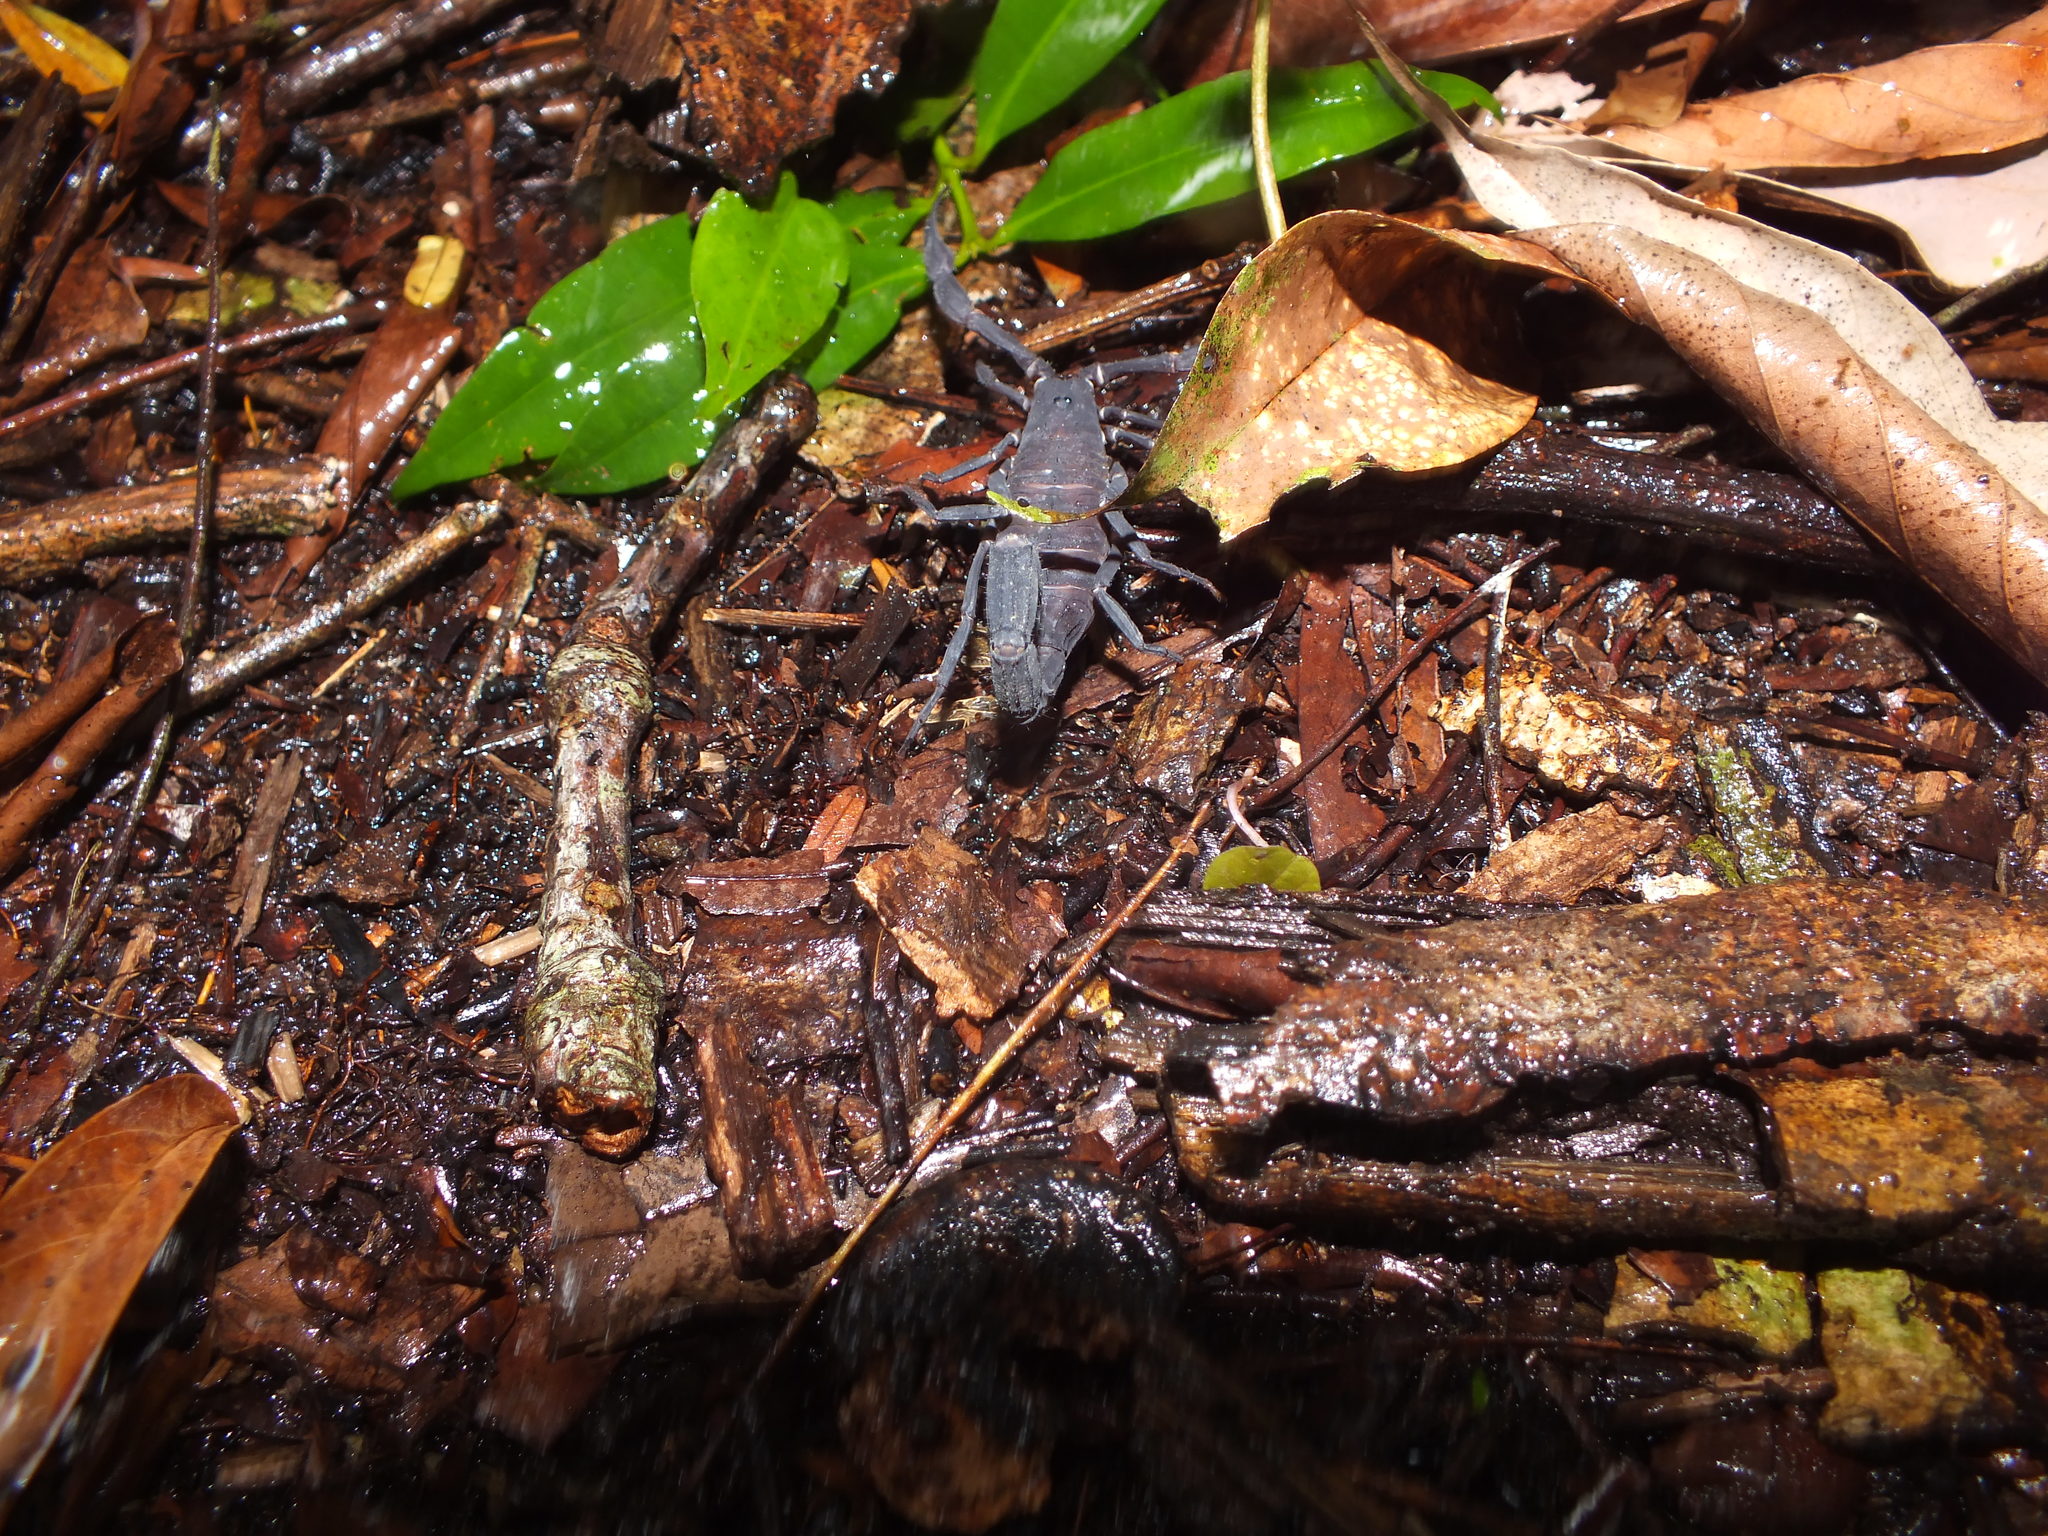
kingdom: Animalia
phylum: Arthropoda
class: Arachnida
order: Scorpiones
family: Buthidae
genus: Tityus
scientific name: Tityus asthenes
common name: Scorpions
